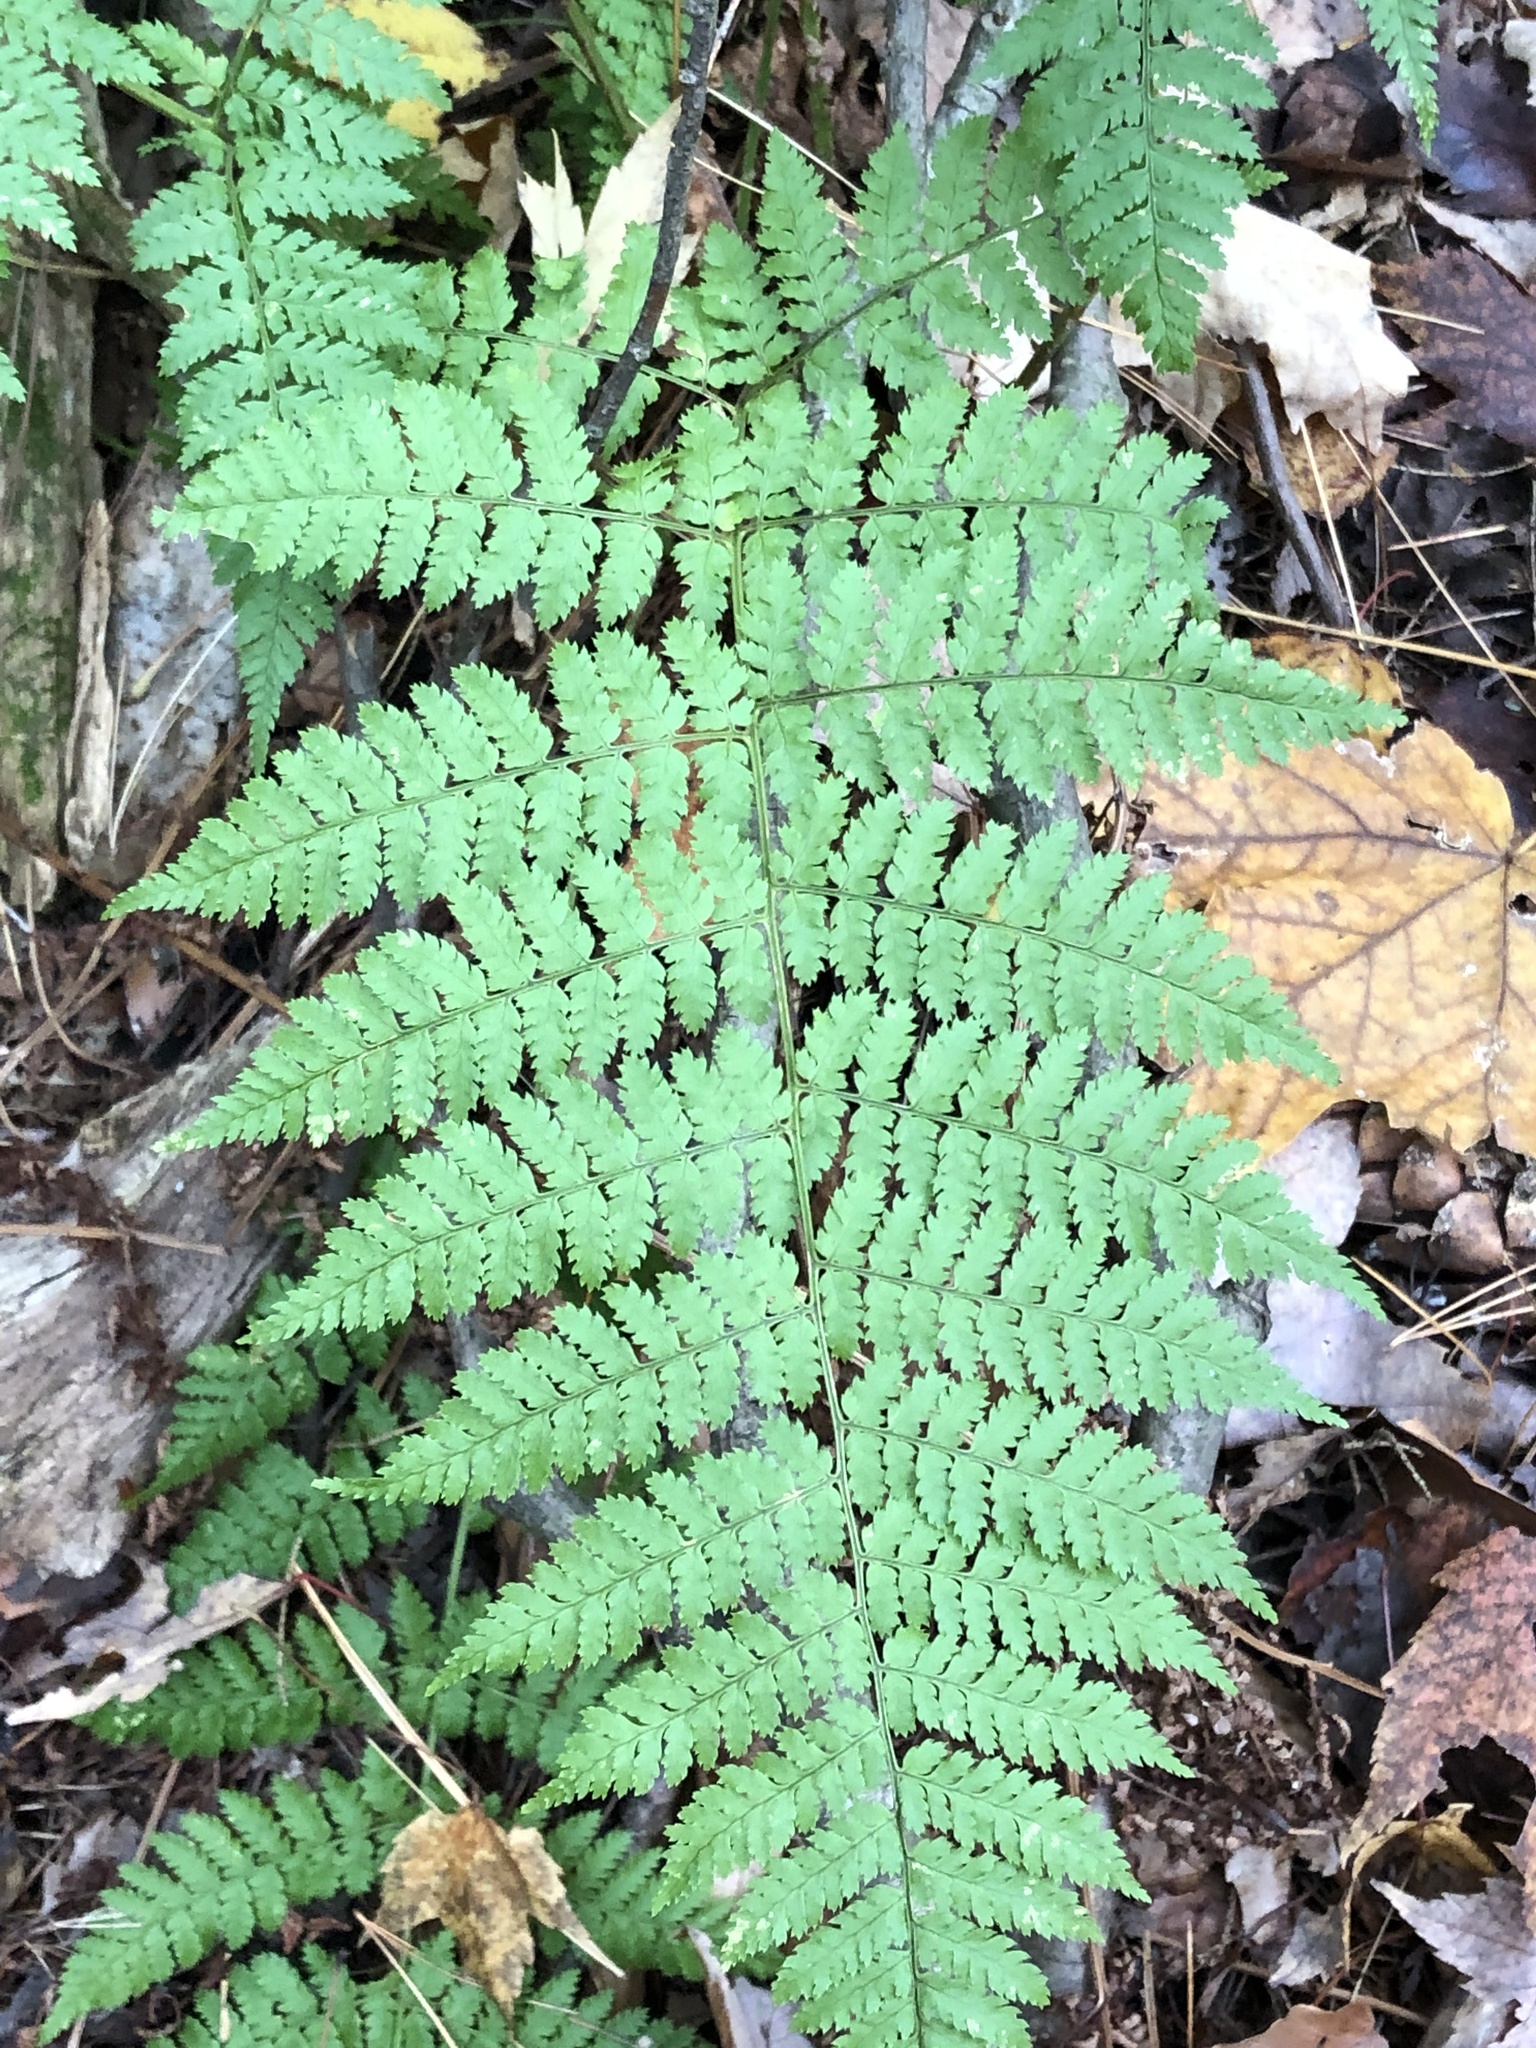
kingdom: Plantae
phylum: Tracheophyta
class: Polypodiopsida
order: Polypodiales
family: Dryopteridaceae
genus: Dryopteris
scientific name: Dryopteris intermedia
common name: Evergreen wood fern
